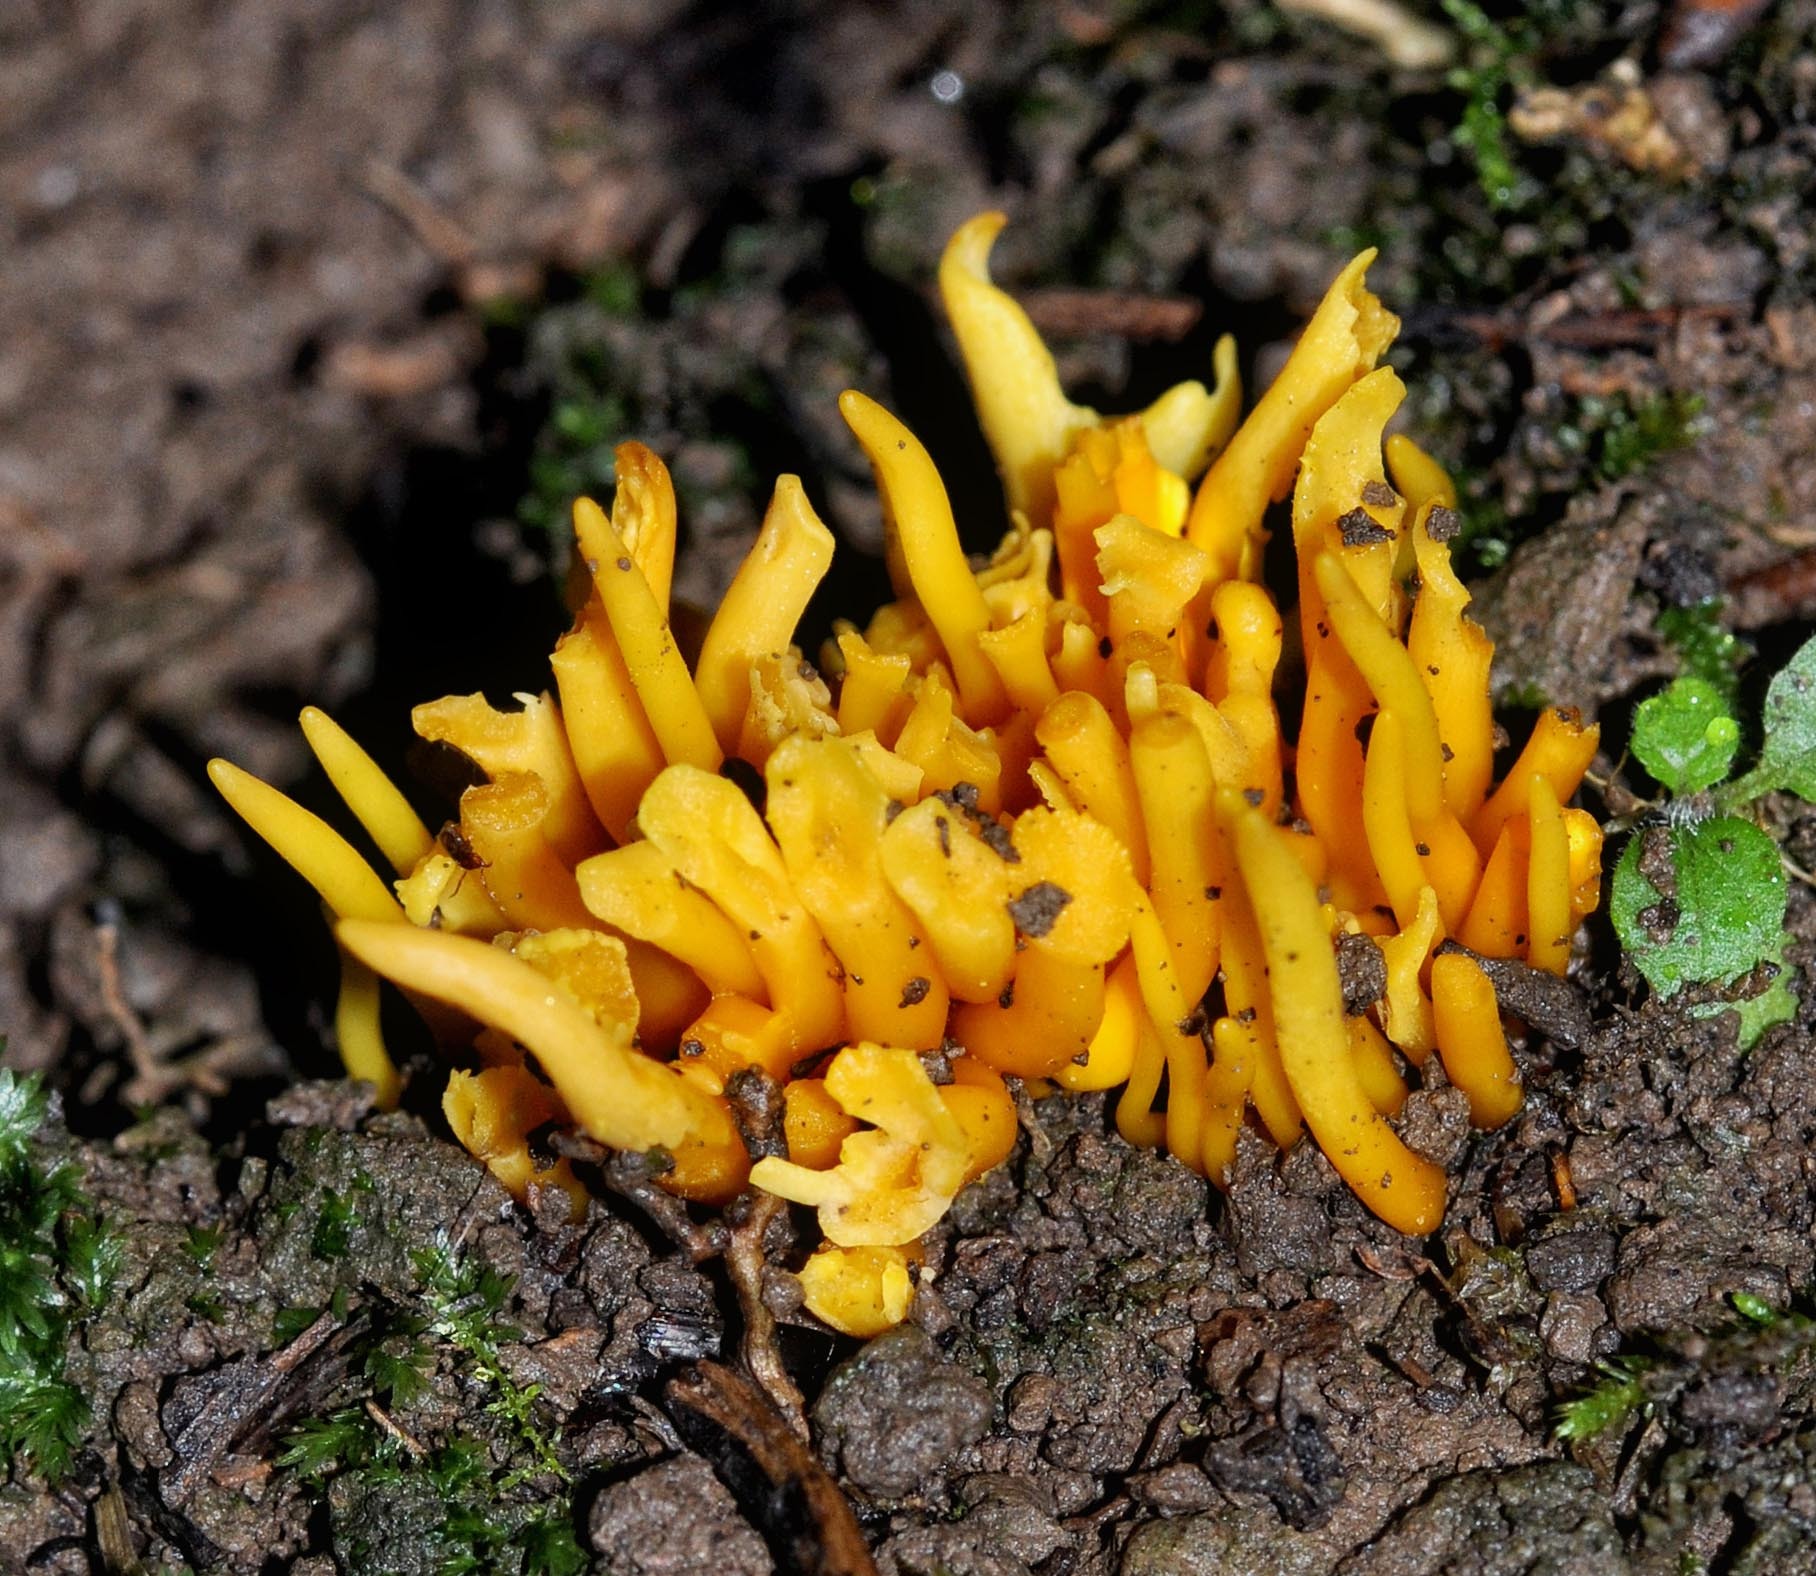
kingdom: Fungi
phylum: Basidiomycota
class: Agaricomycetes
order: Agaricales
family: Clavariaceae
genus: Clavulinopsis
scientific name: Clavulinopsis fusiformis
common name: Golden spindles
